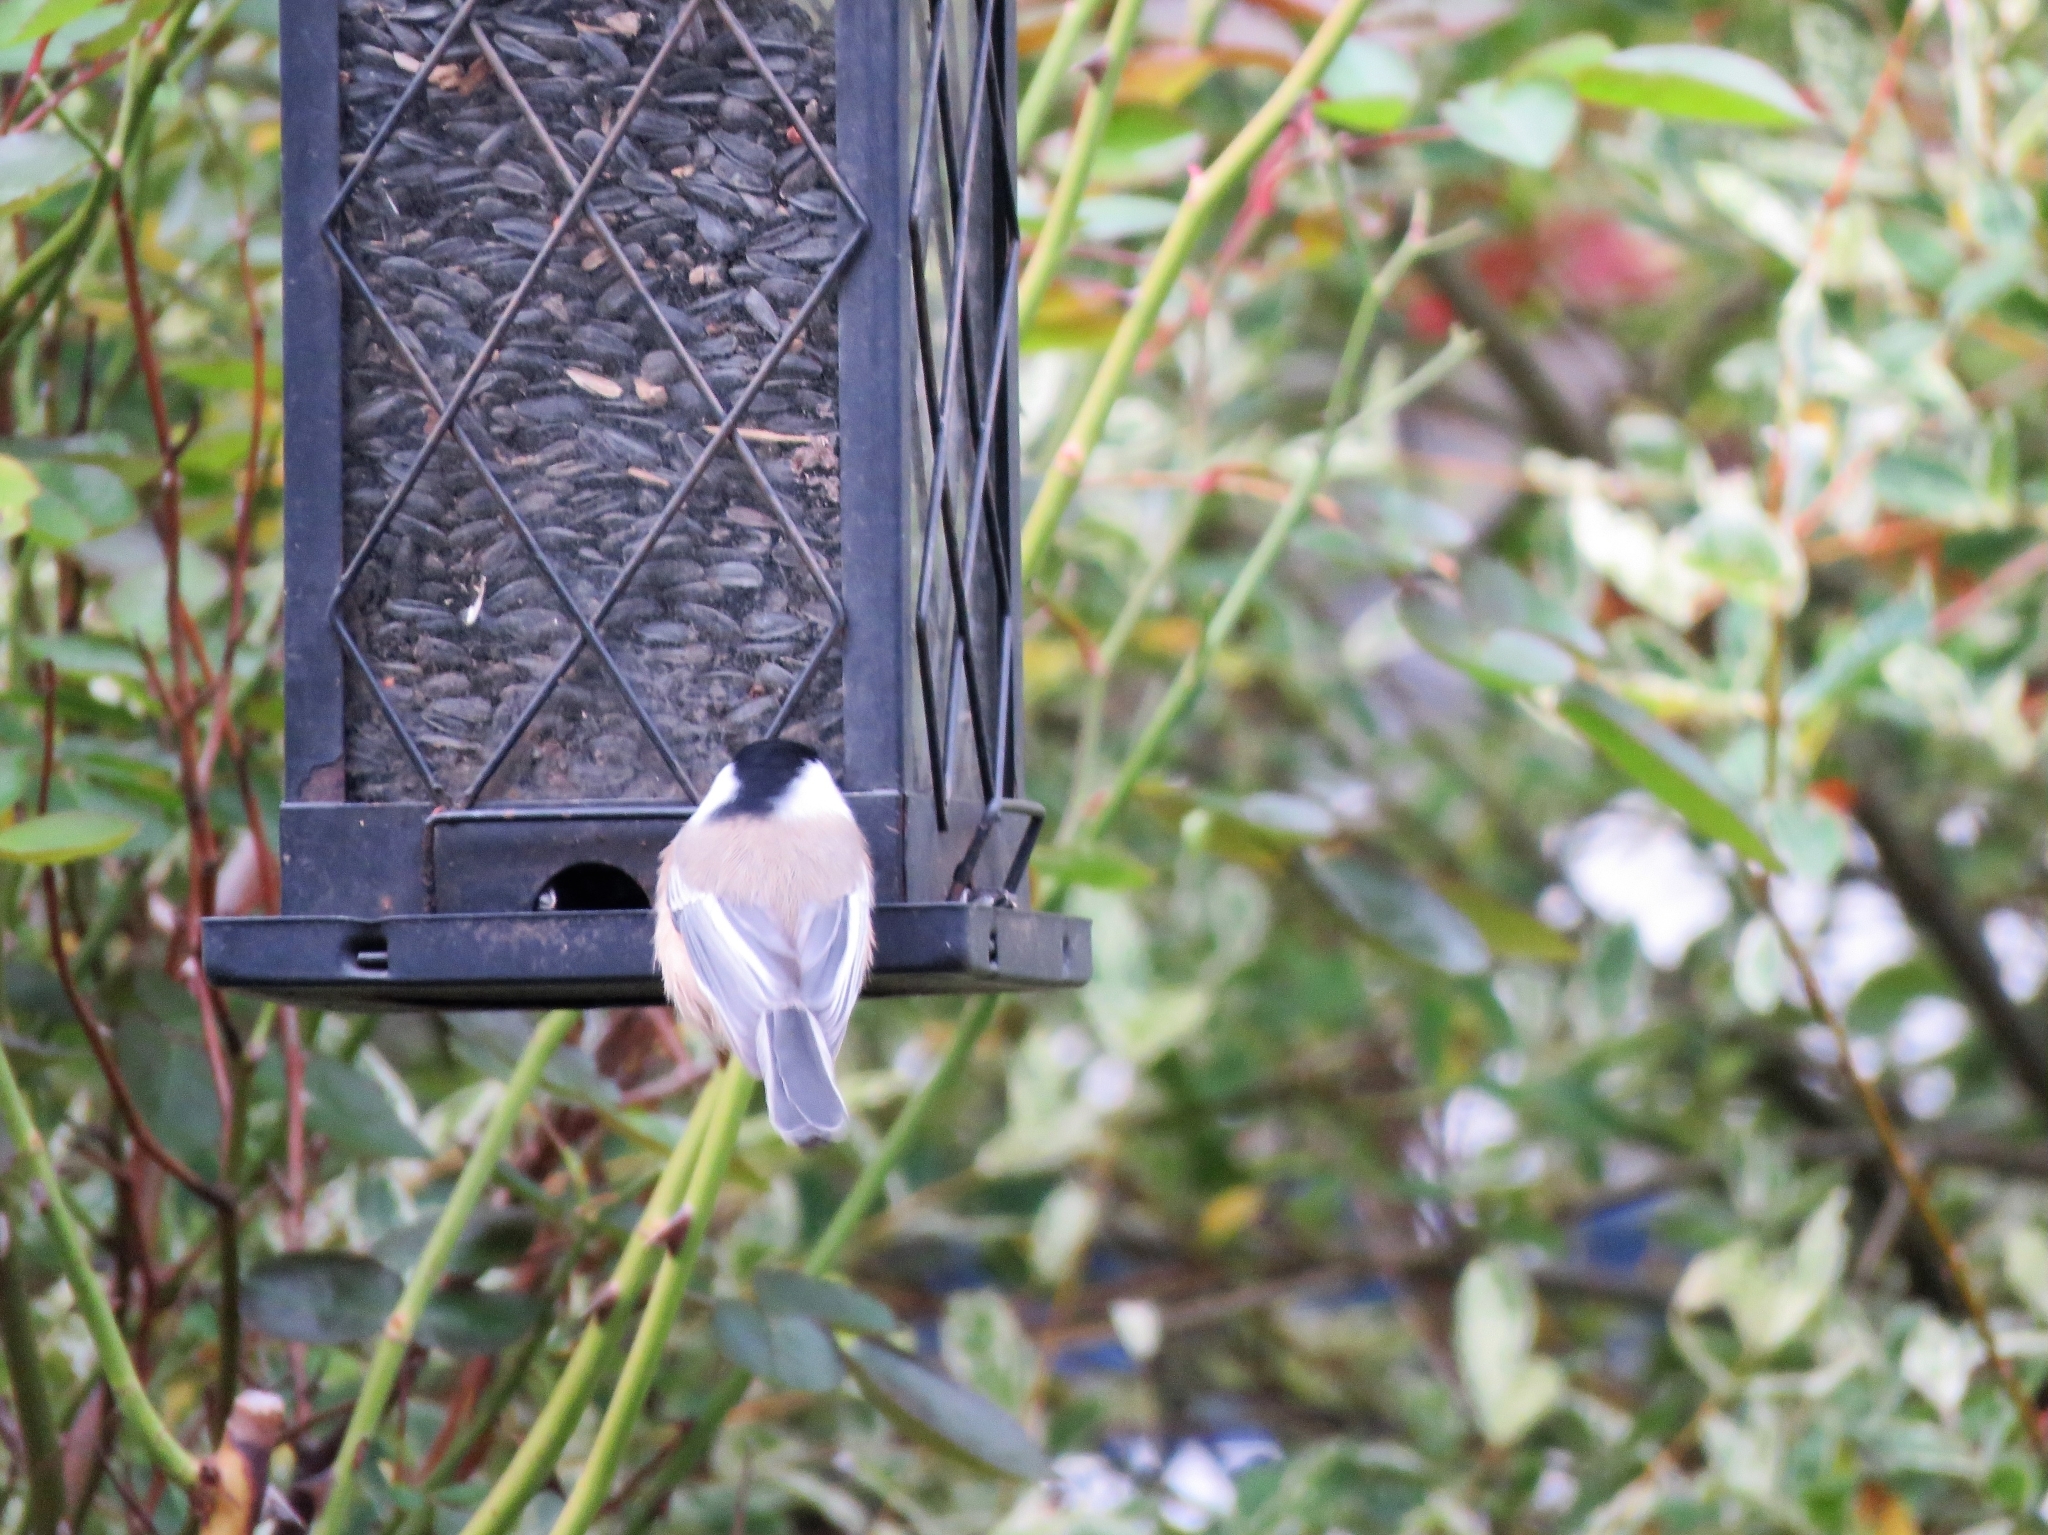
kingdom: Animalia
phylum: Chordata
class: Aves
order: Passeriformes
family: Paridae
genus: Poecile
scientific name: Poecile atricapillus
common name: Black-capped chickadee
